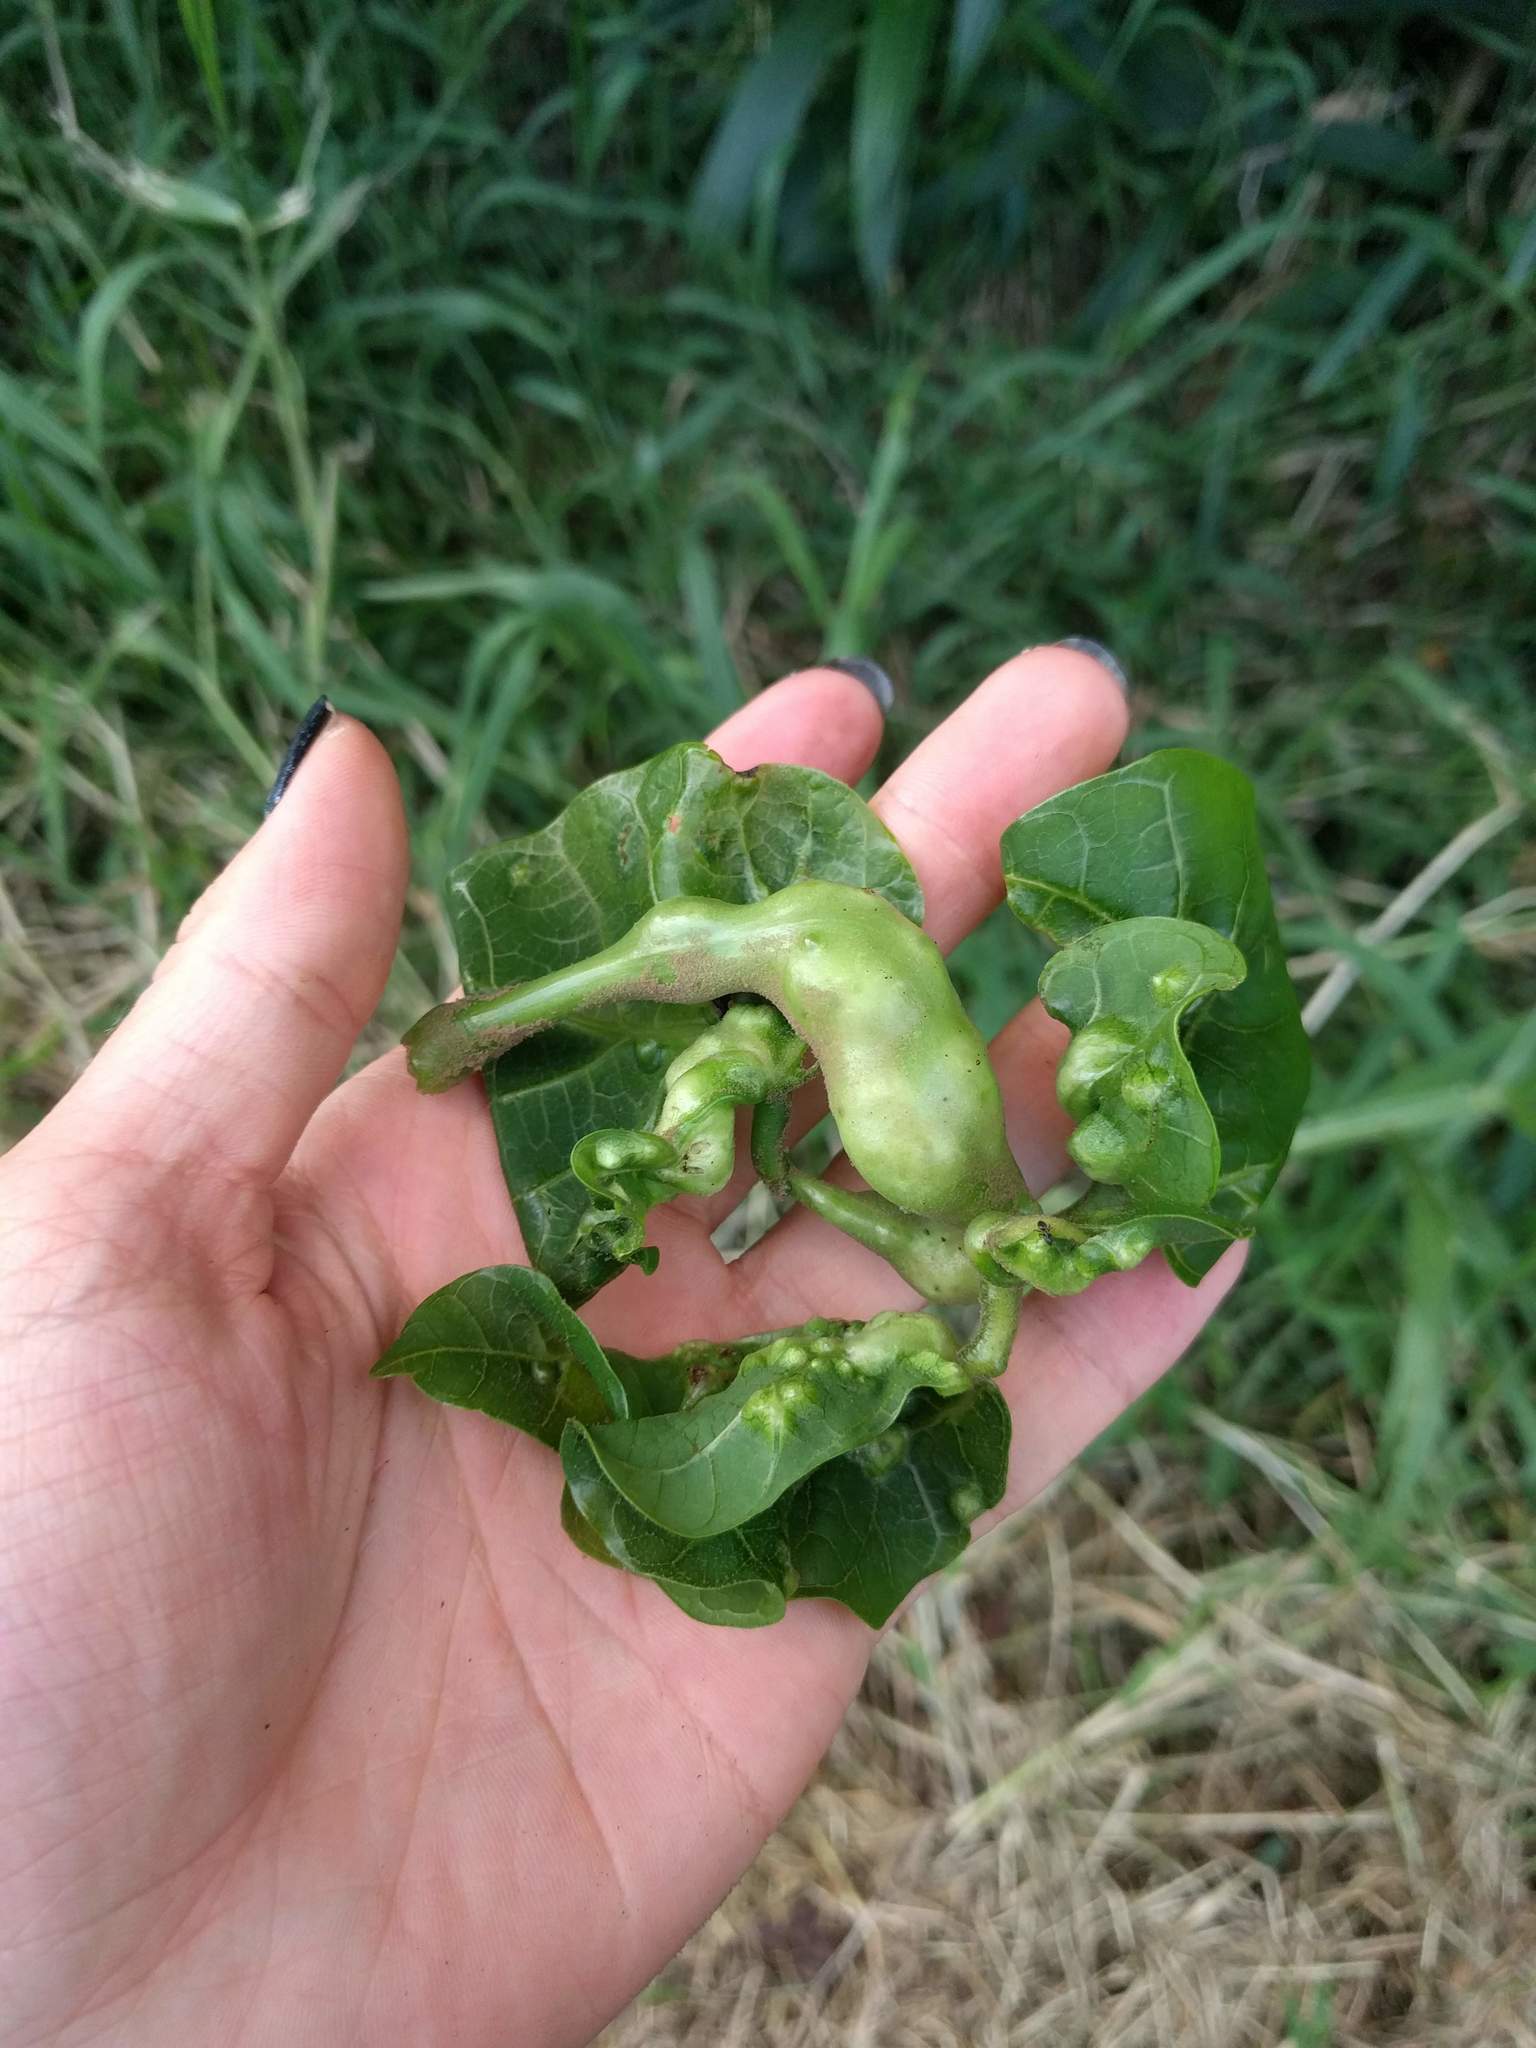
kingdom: Animalia
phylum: Arthropoda
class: Insecta
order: Hymenoptera
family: Eulophidae
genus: Quadrastichus
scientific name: Quadrastichus erythrinae
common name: Erythrina gall wasp
